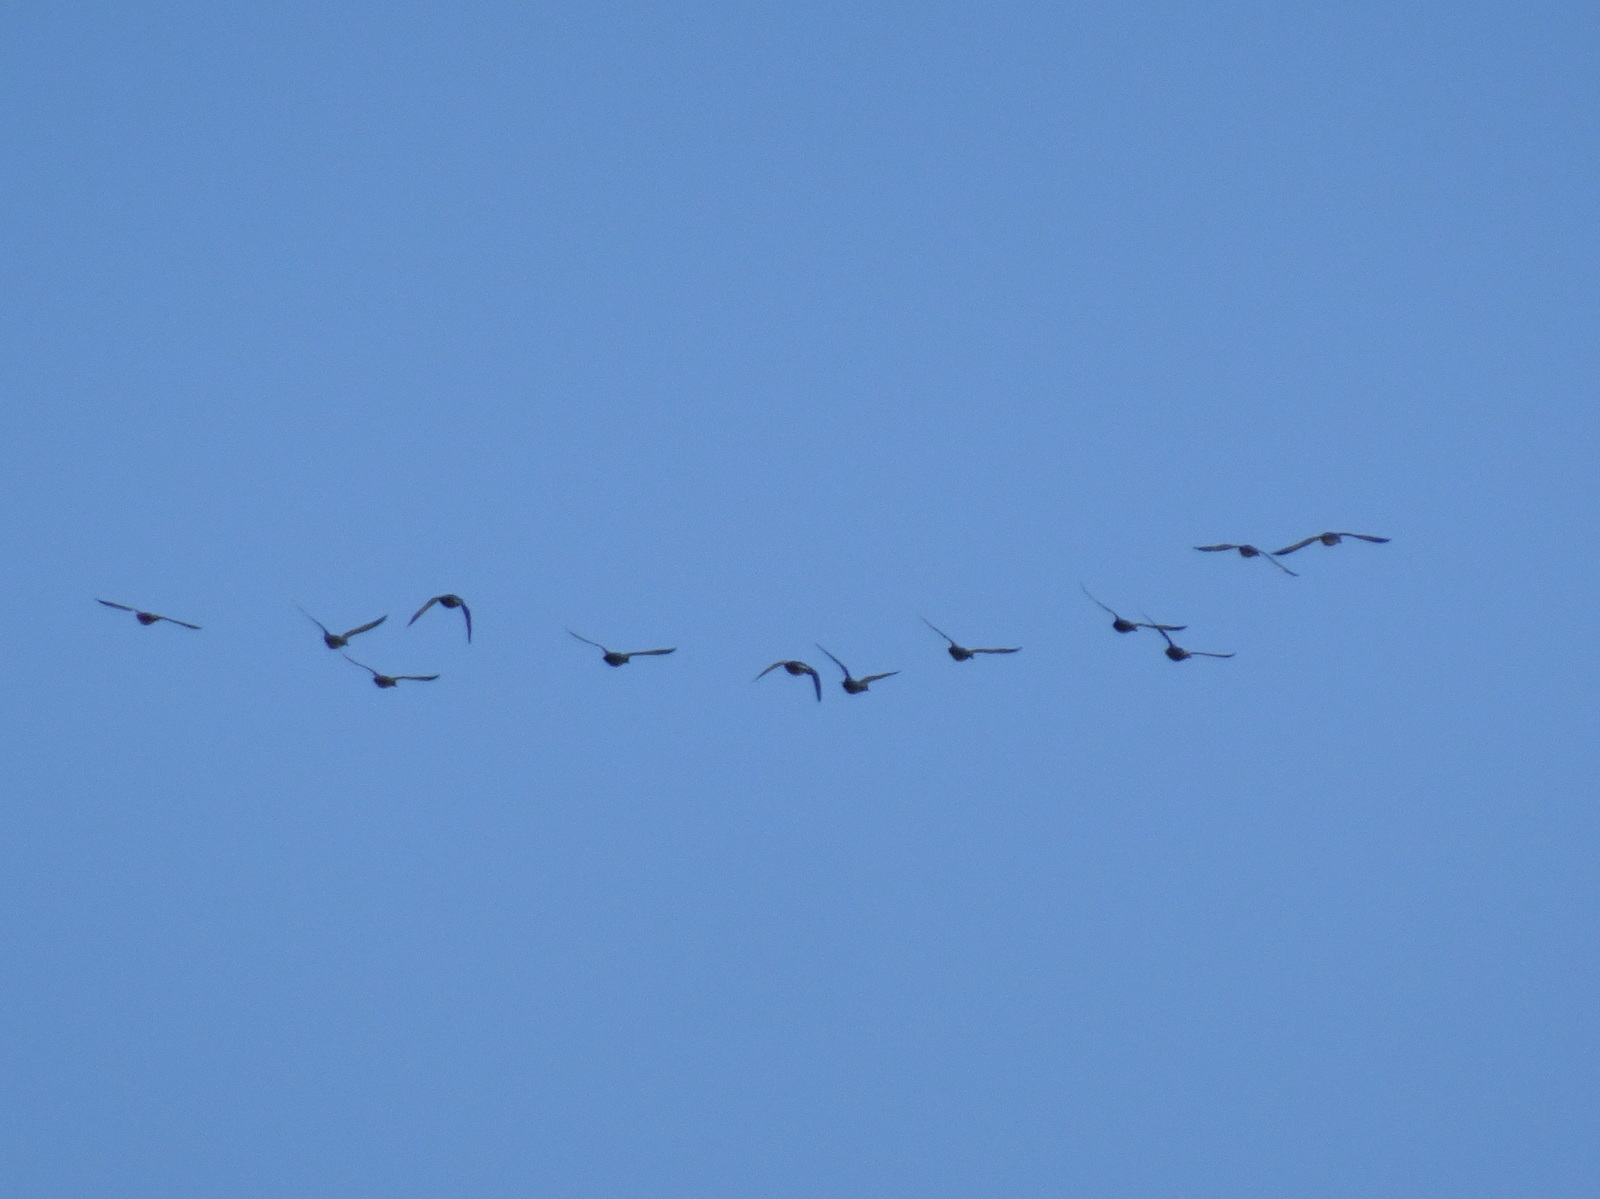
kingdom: Animalia
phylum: Chordata
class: Aves
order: Anseriformes
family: Anatidae
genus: Mareca
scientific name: Mareca strepera
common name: Gadwall
